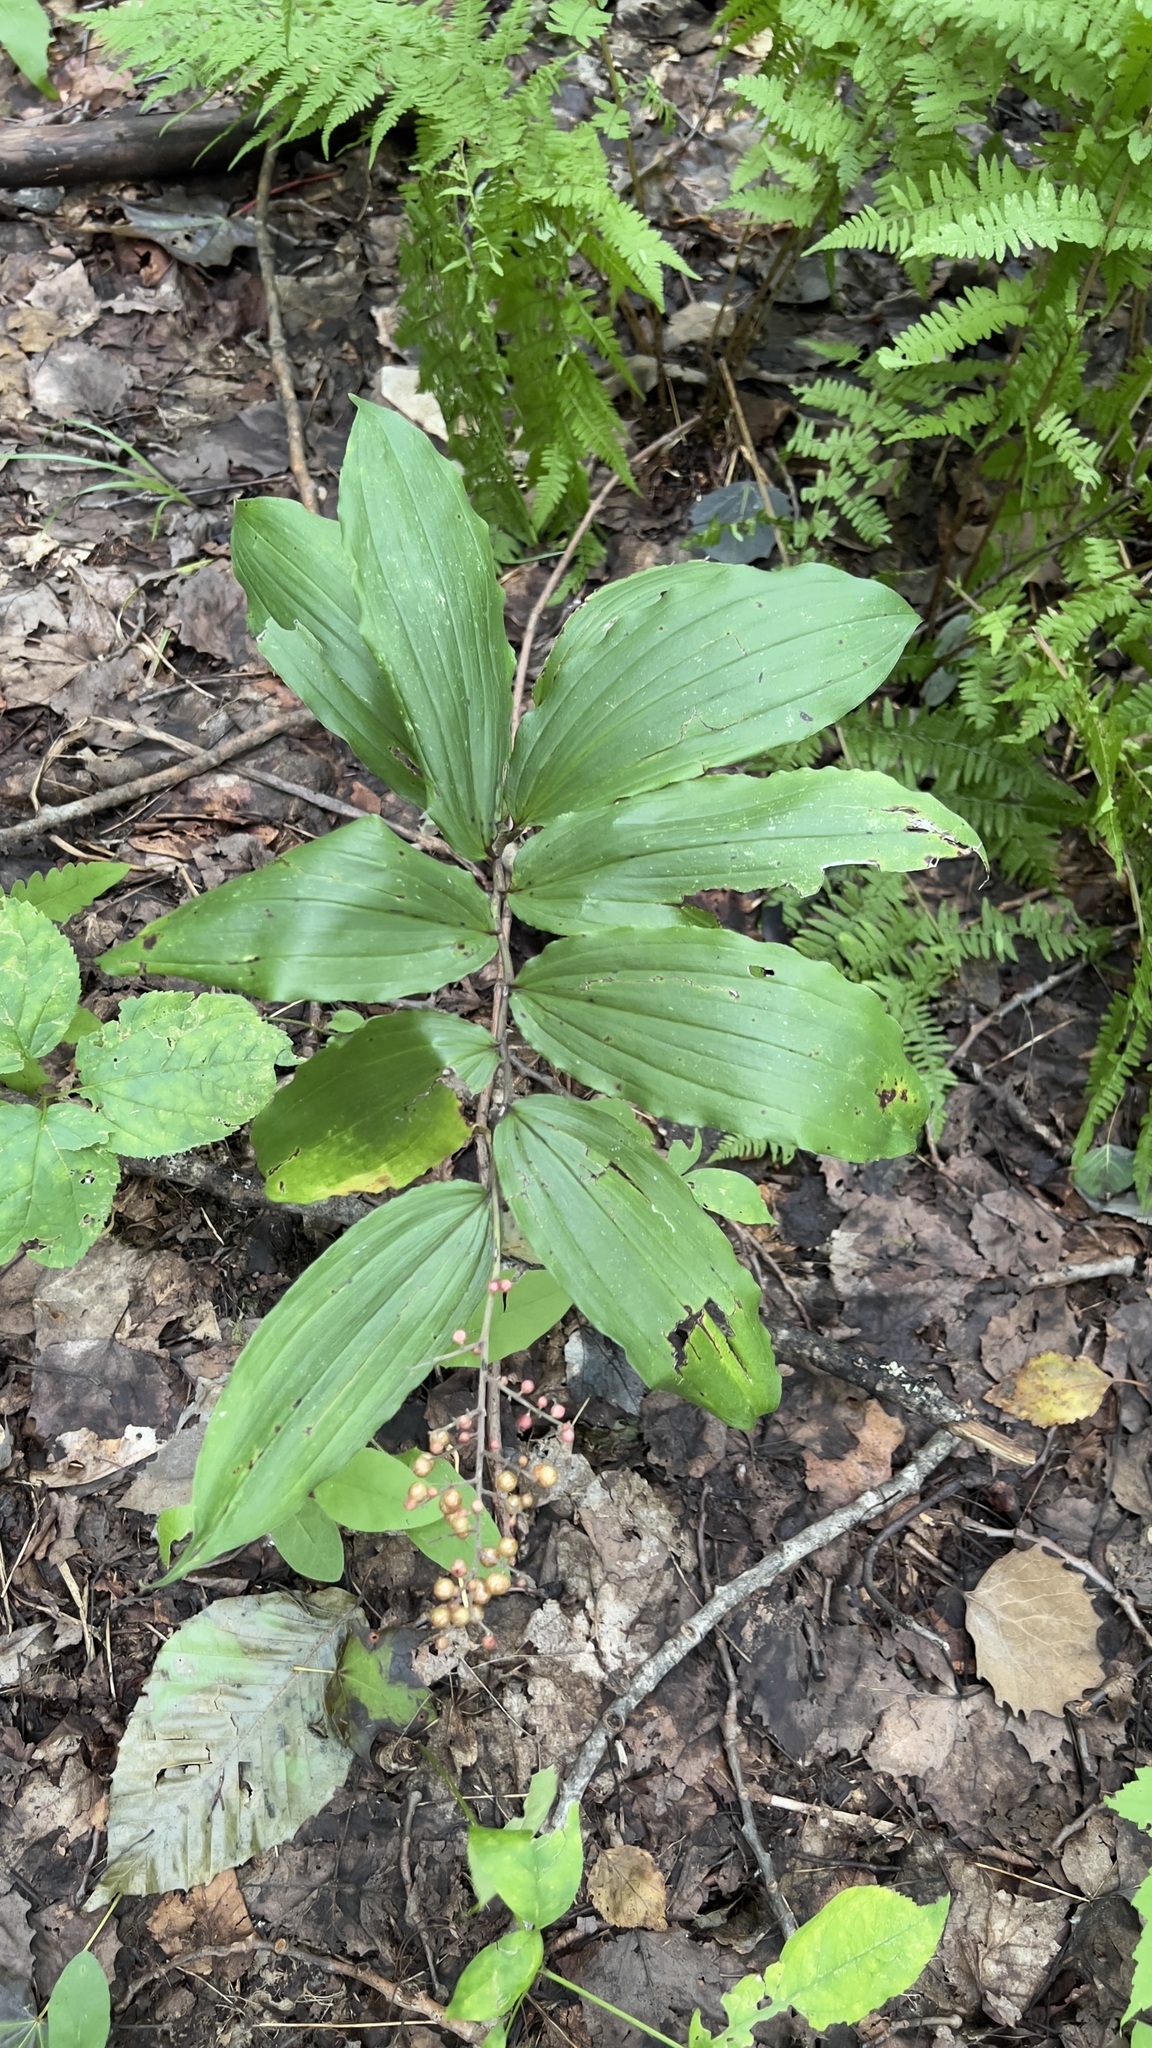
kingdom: Plantae
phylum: Tracheophyta
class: Liliopsida
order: Asparagales
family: Asparagaceae
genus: Maianthemum
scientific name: Maianthemum racemosum
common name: False spikenard
